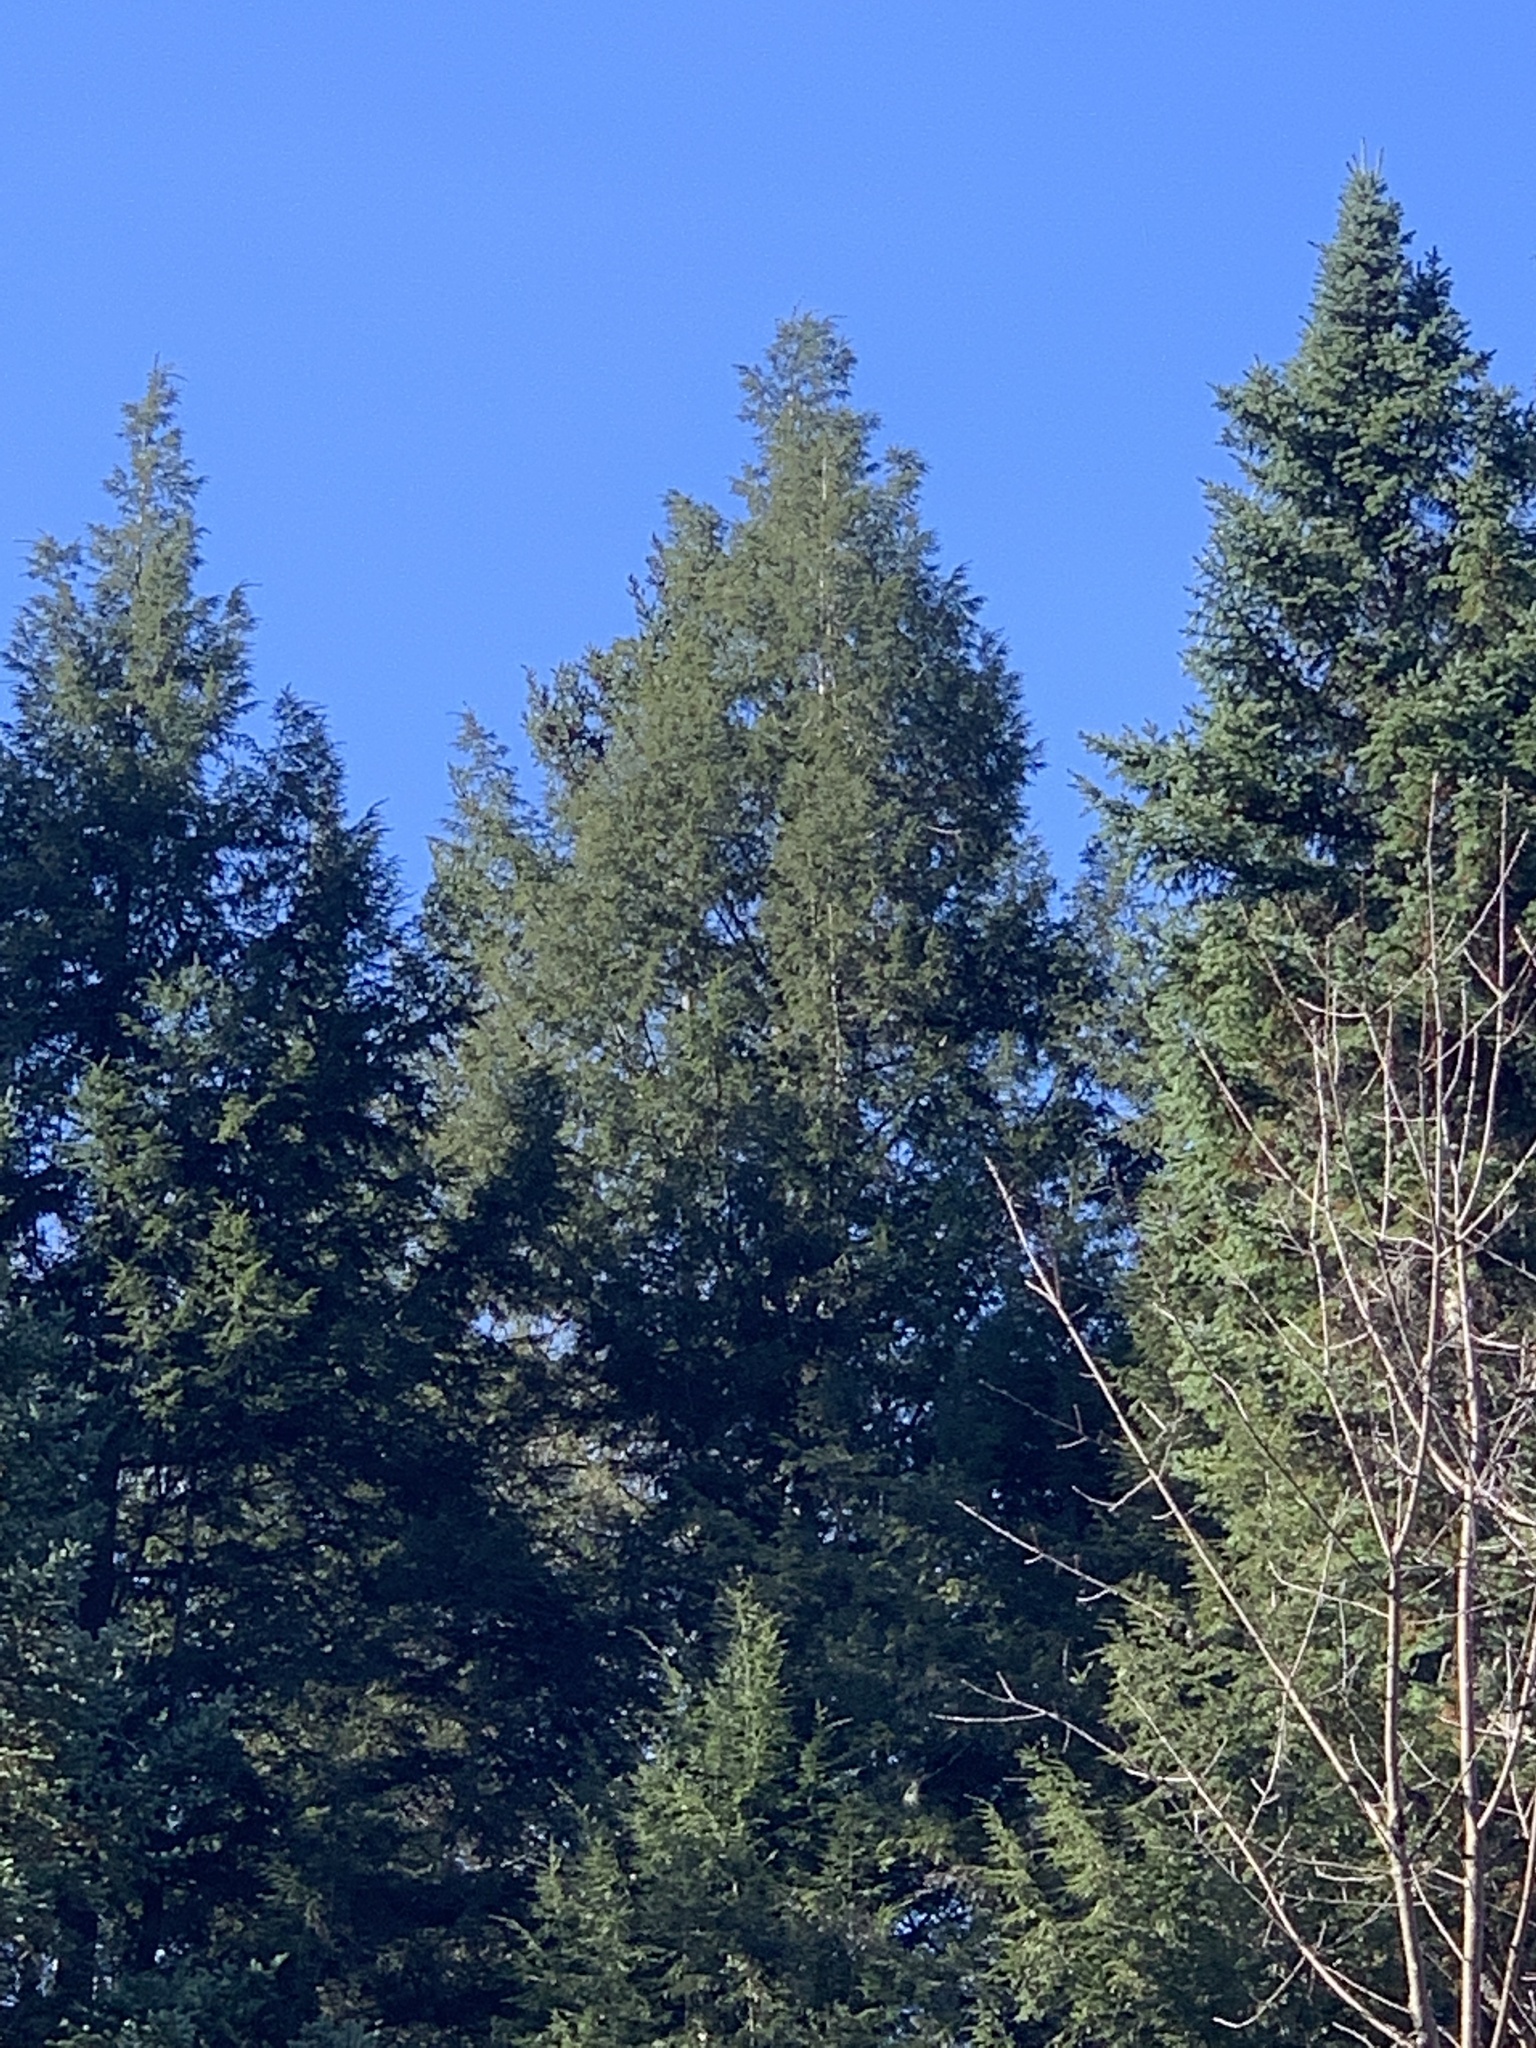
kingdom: Plantae
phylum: Tracheophyta
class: Pinopsida
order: Pinales
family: Pinaceae
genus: Tsuga
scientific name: Tsuga canadensis
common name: Eastern hemlock
